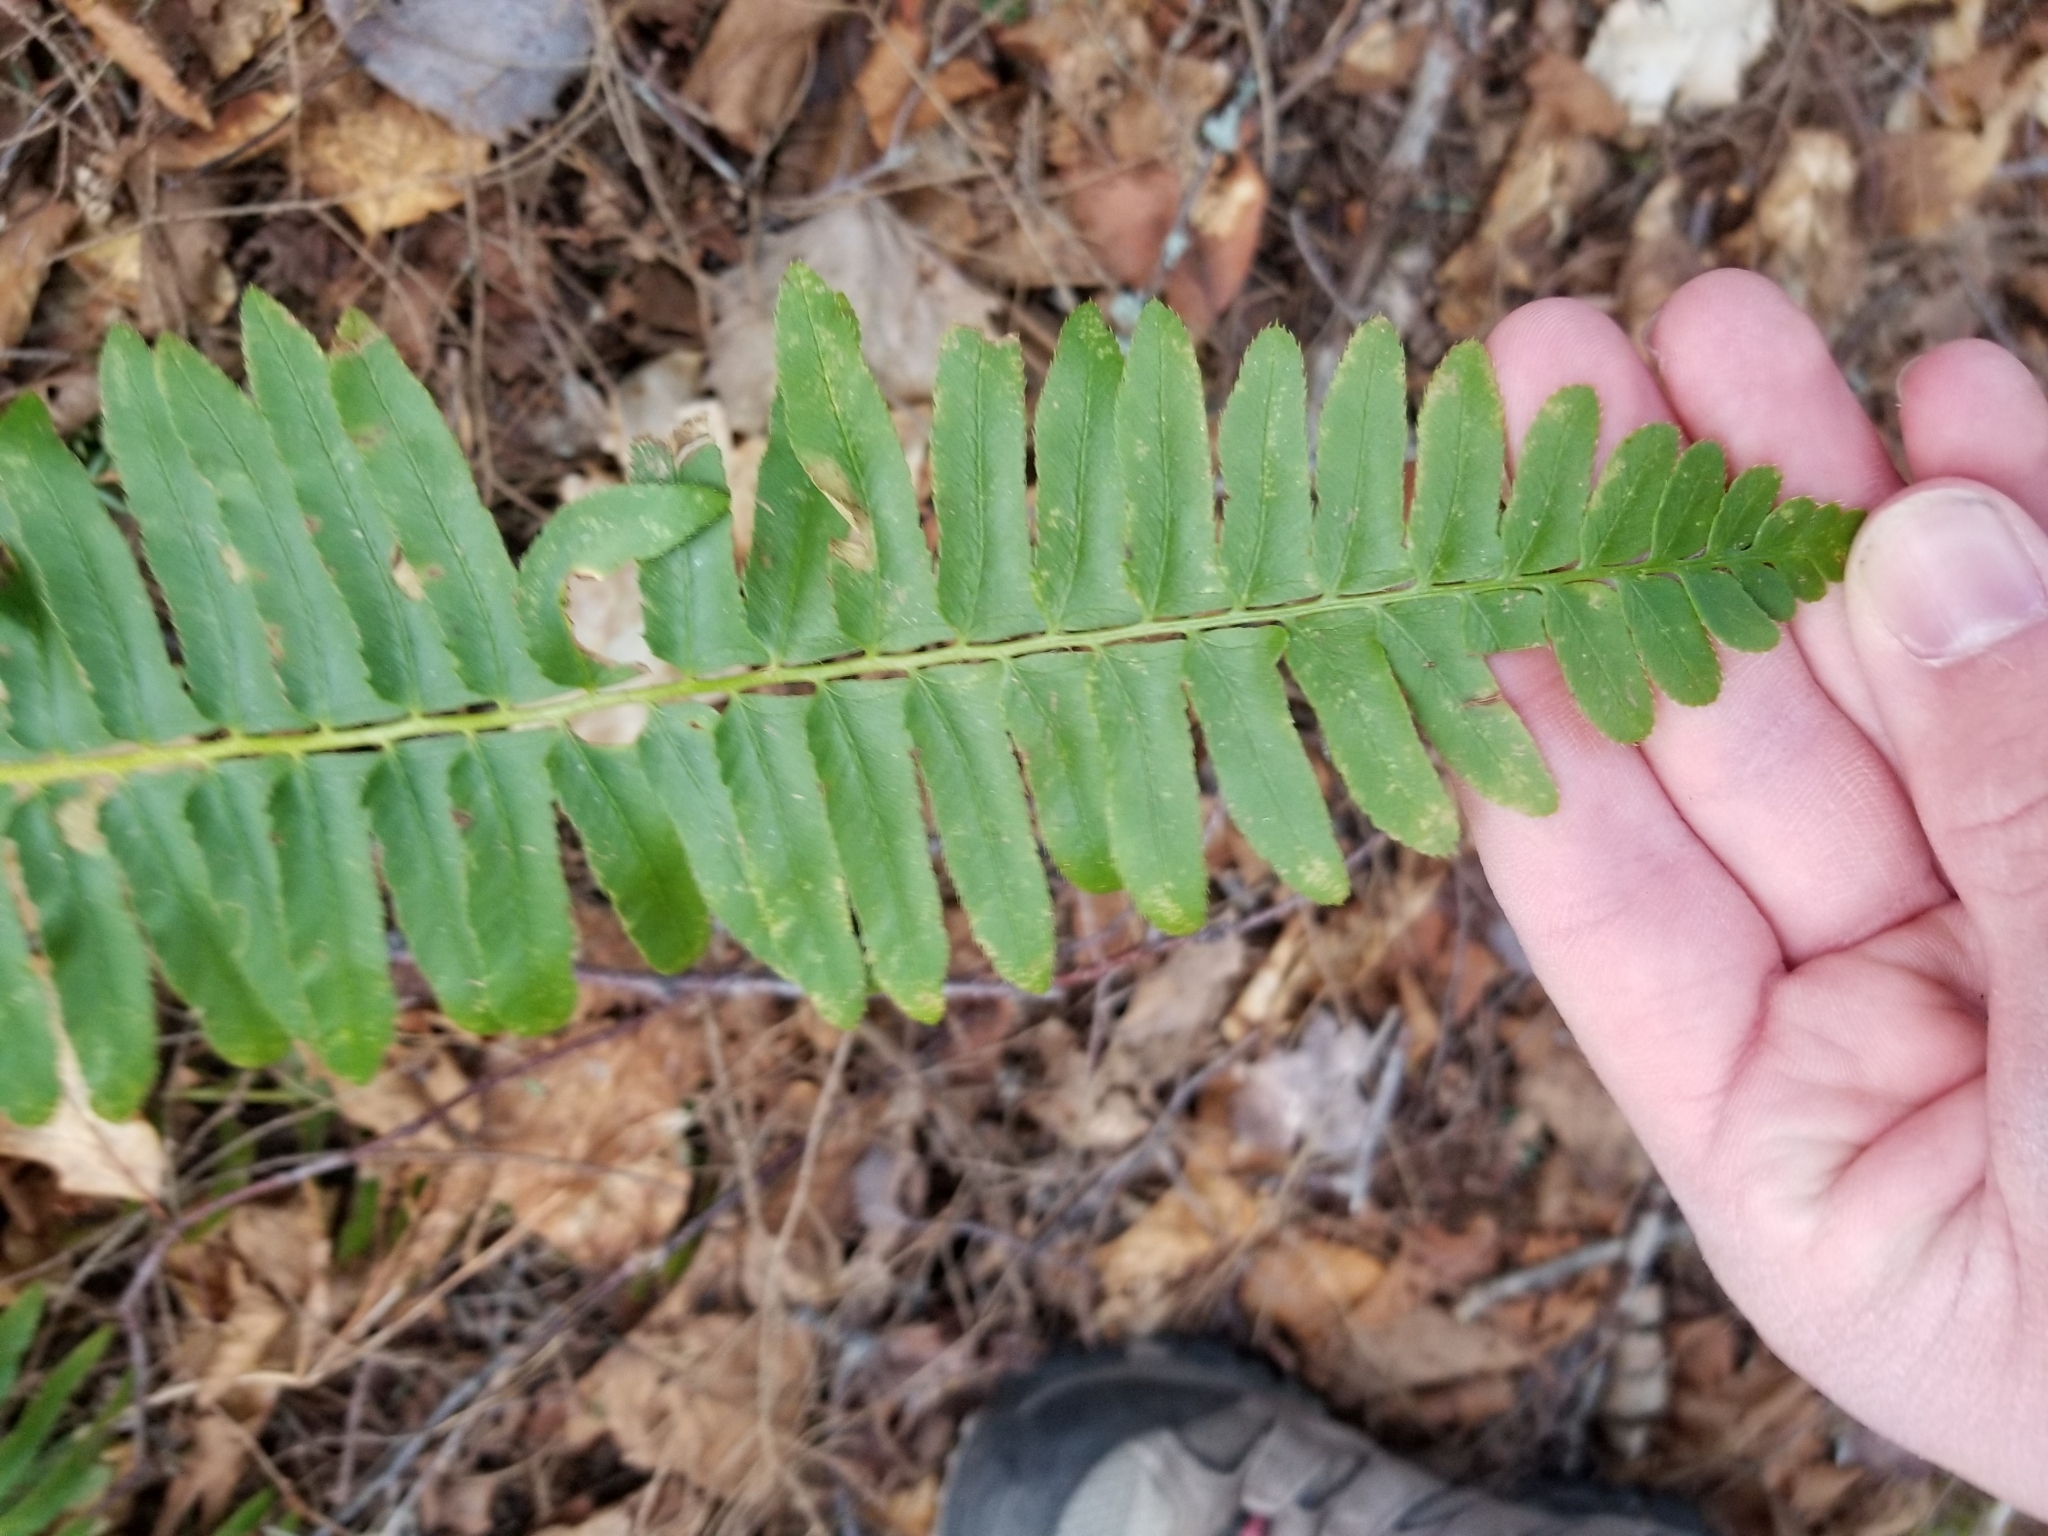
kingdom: Plantae
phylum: Tracheophyta
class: Polypodiopsida
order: Polypodiales
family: Dryopteridaceae
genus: Polystichum
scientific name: Polystichum acrostichoides
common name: Christmas fern
